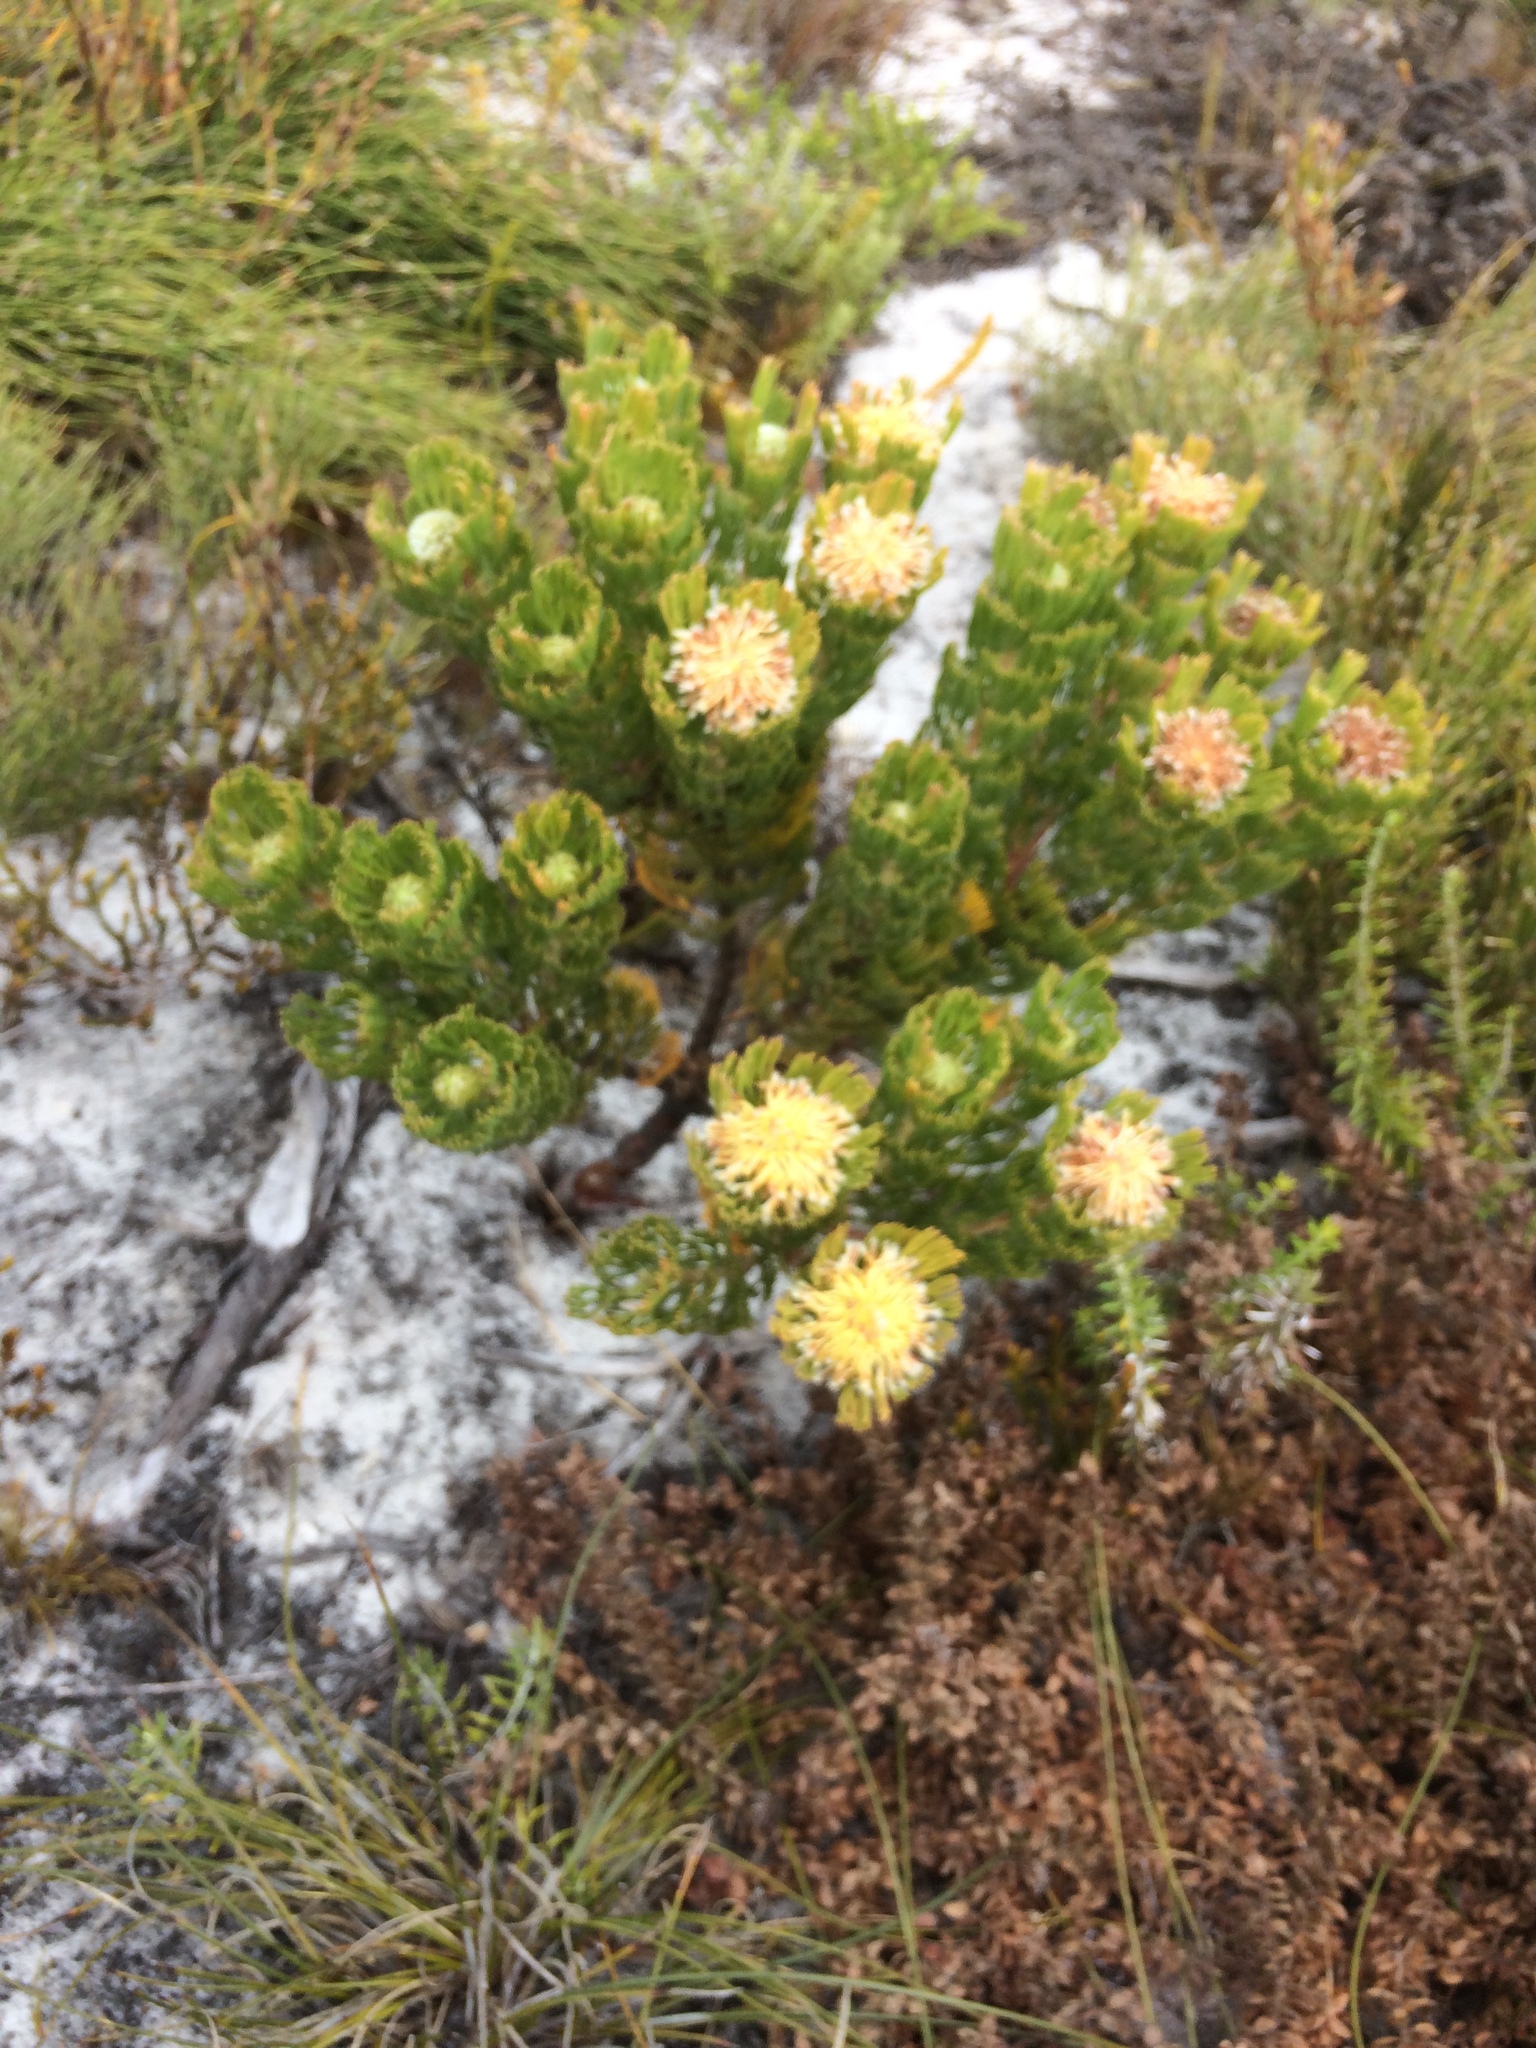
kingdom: Plantae
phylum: Tracheophyta
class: Magnoliopsida
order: Proteales
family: Proteaceae
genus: Serruria
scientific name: Serruria villosa
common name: Golden spiderhead
